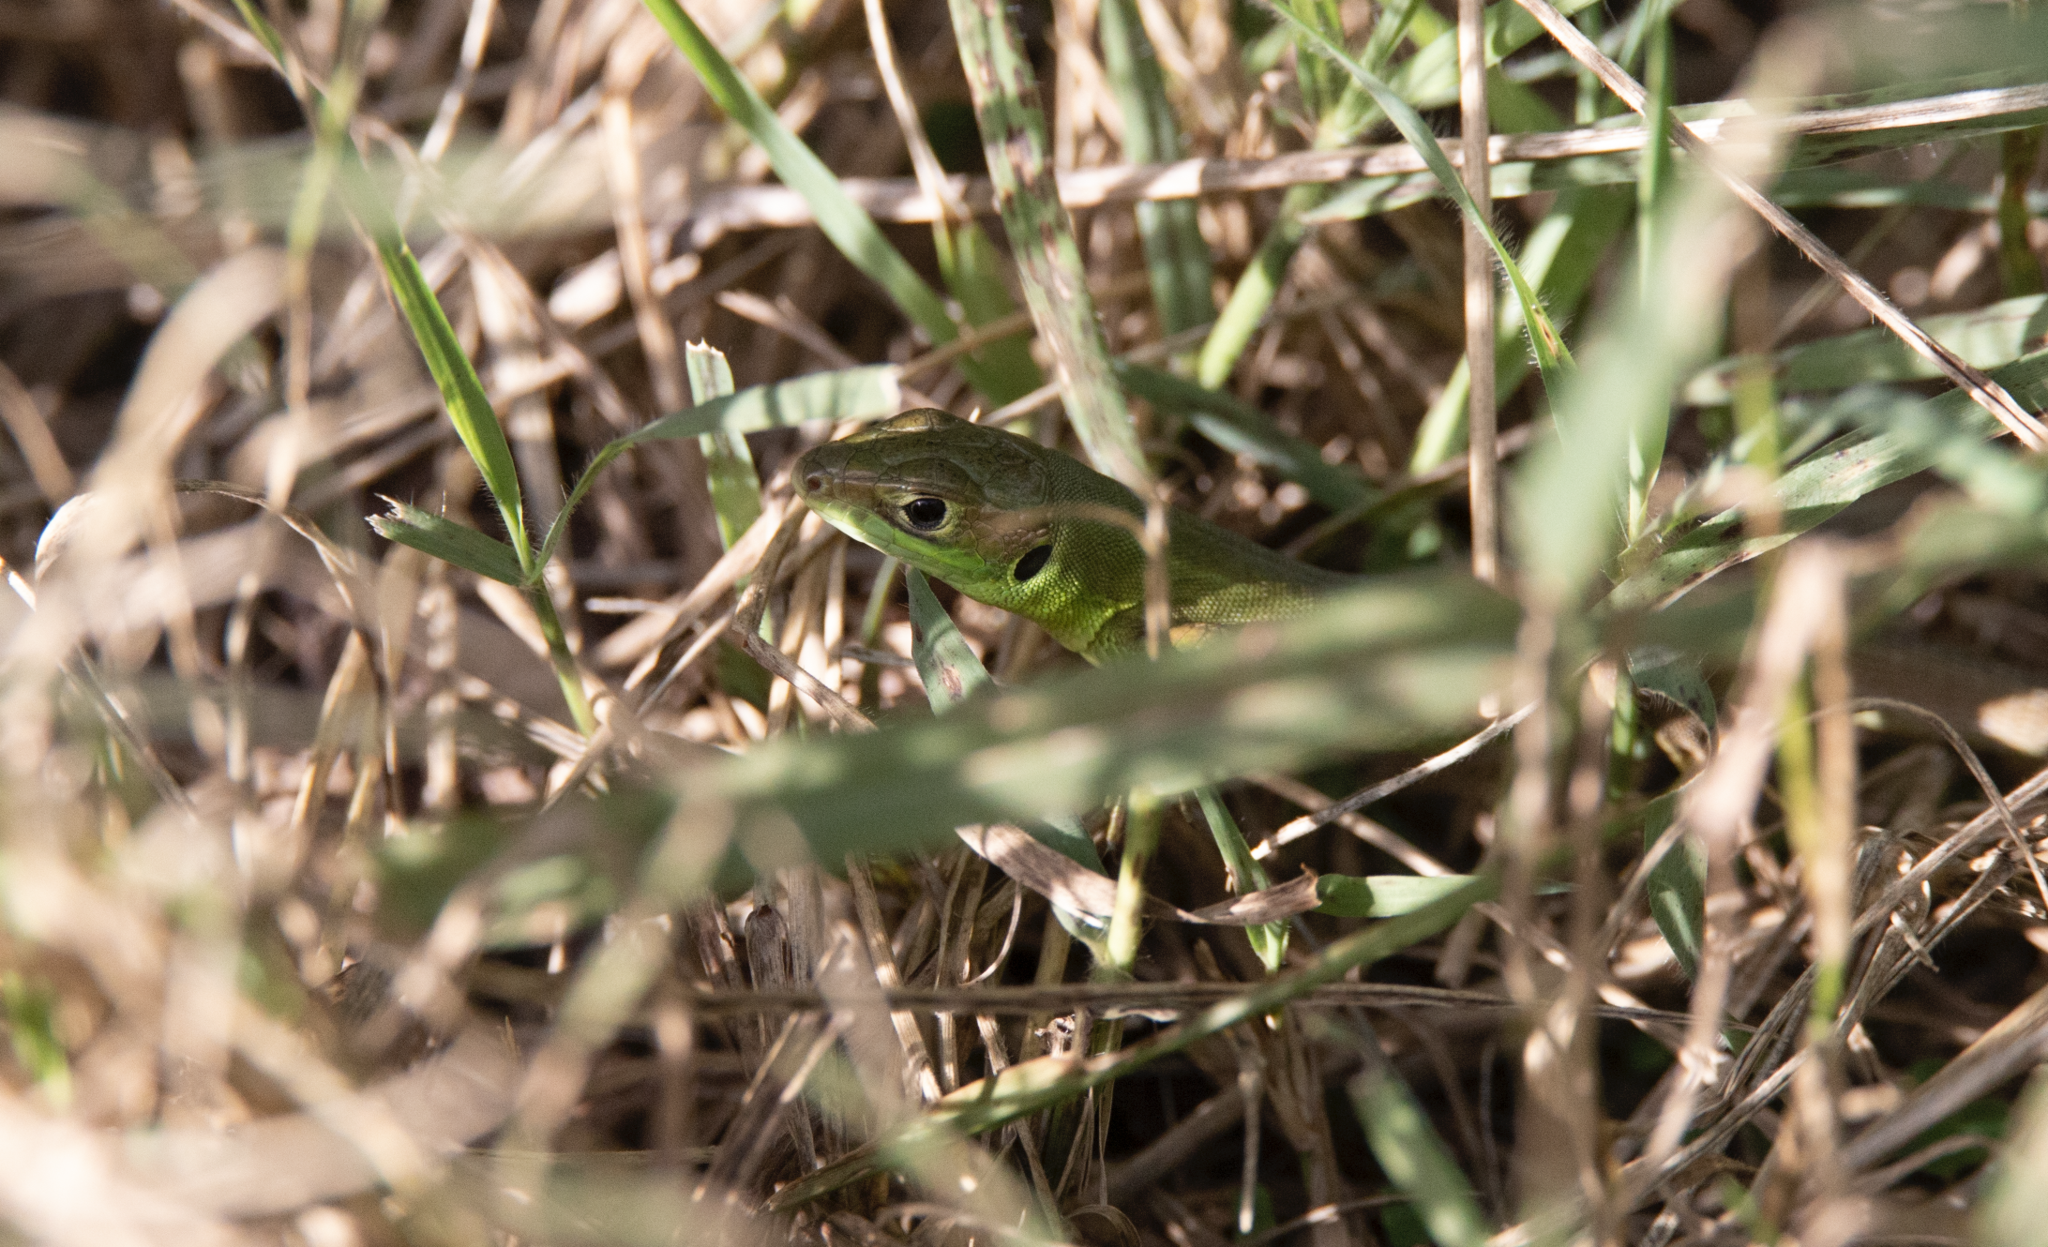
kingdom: Animalia
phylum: Chordata
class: Squamata
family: Lacertidae
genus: Lacerta
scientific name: Lacerta bilineata
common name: Western green lizard
